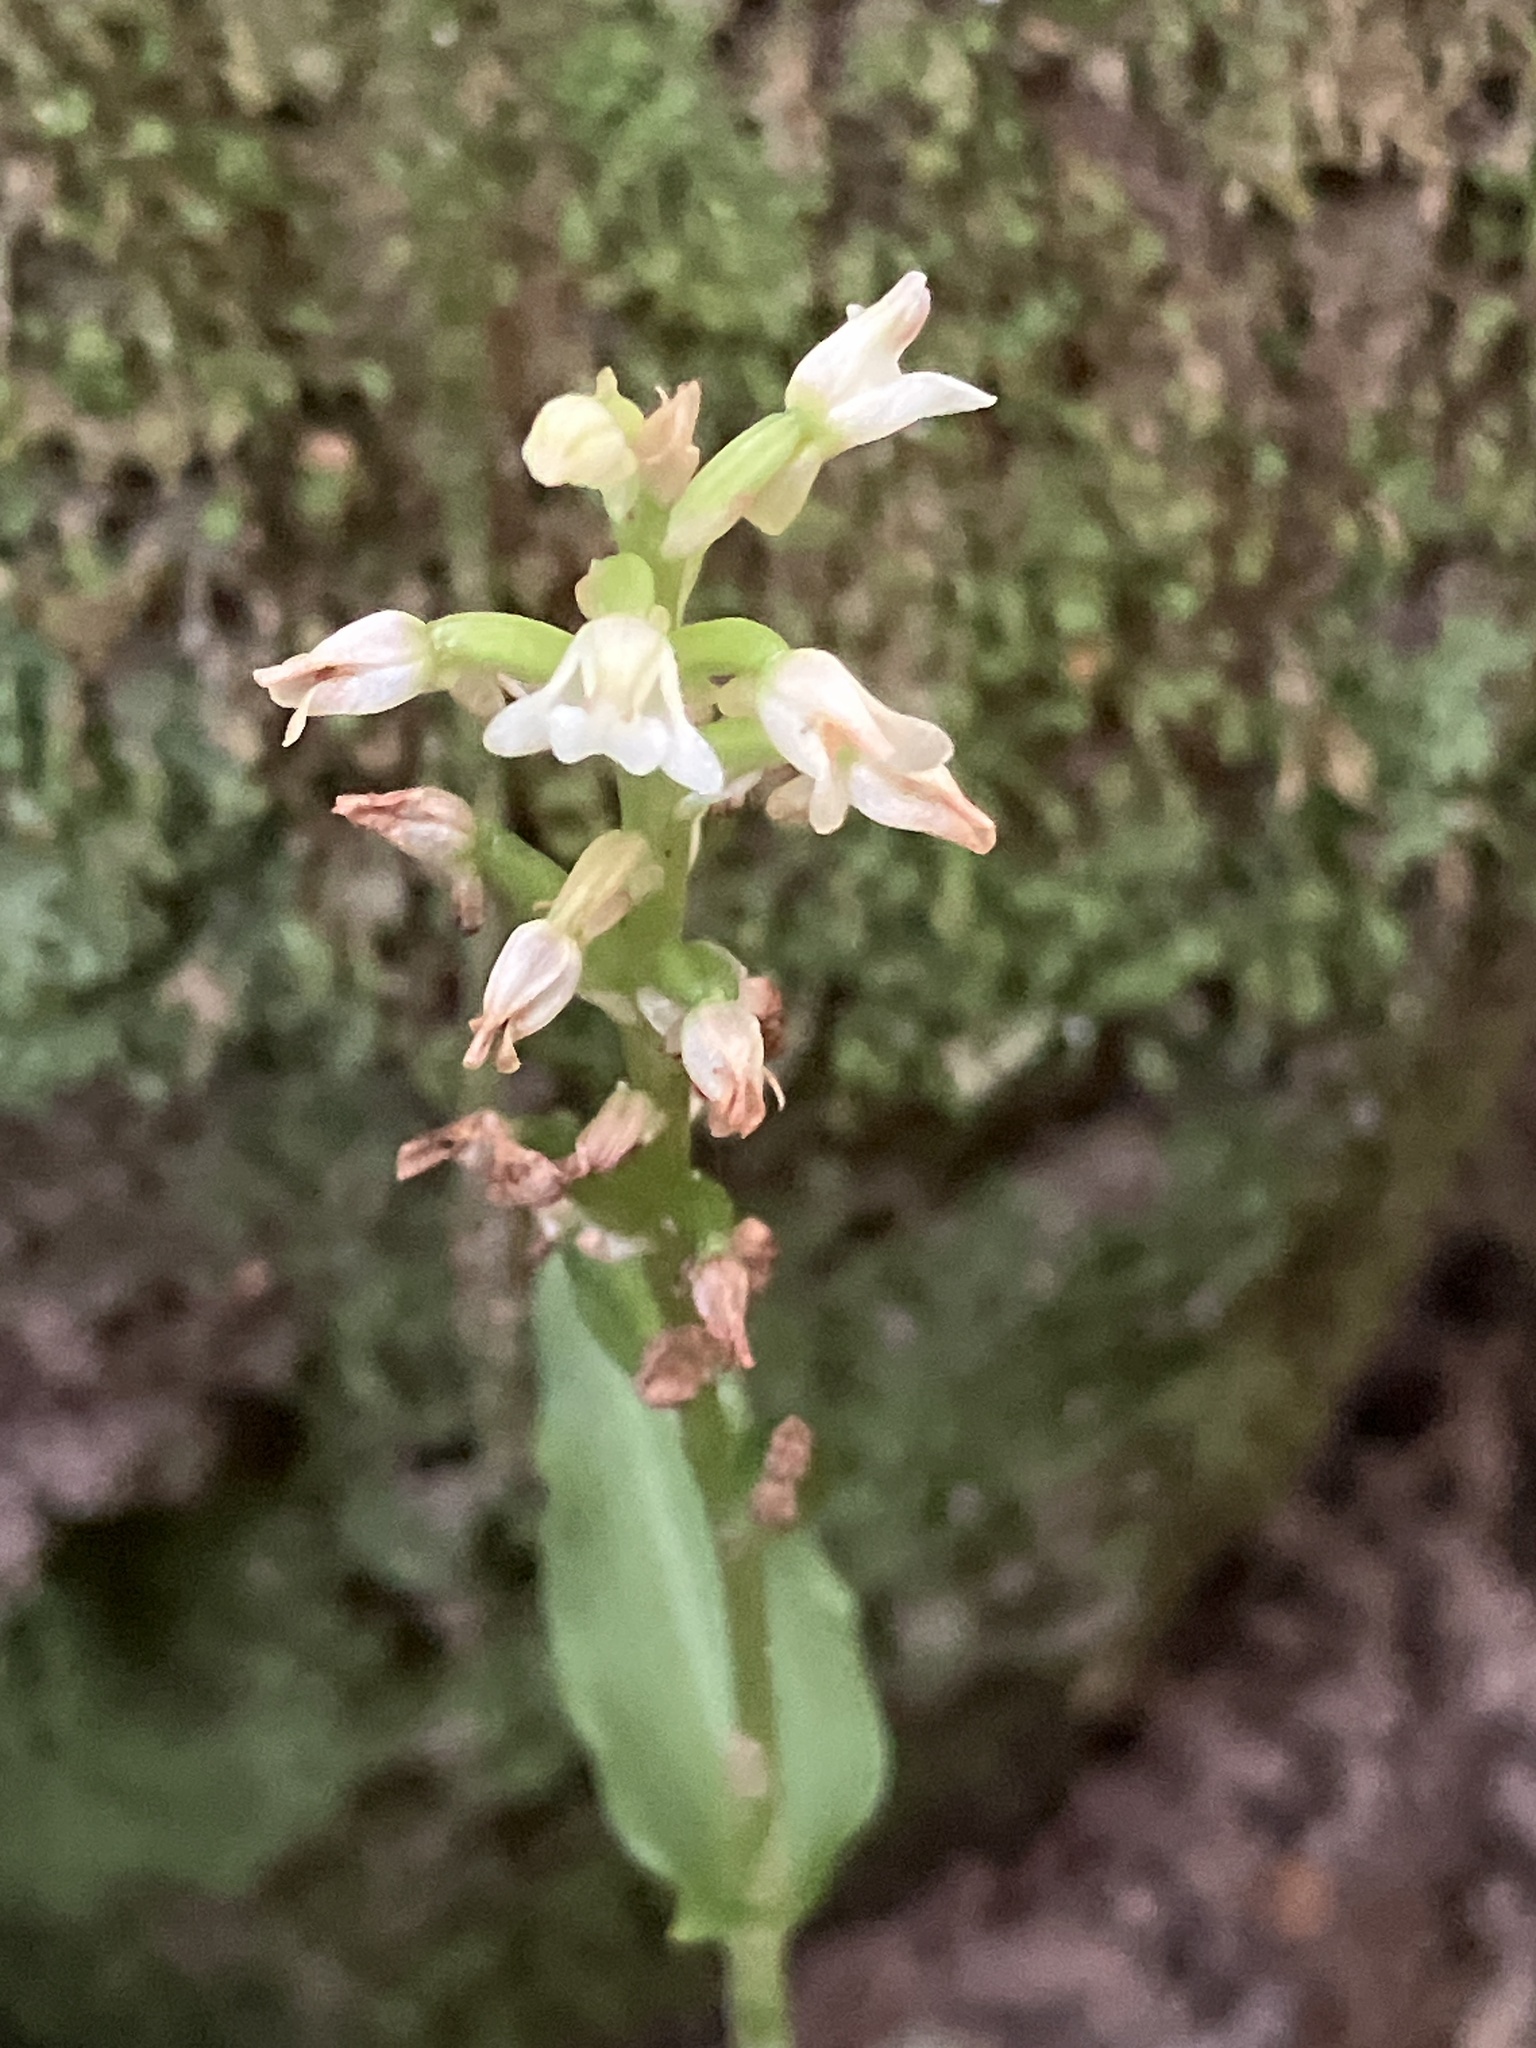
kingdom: Plantae
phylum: Tracheophyta
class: Liliopsida
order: Asparagales
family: Orchidaceae
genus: Aspidogyne
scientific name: Aspidogyne querceticola
